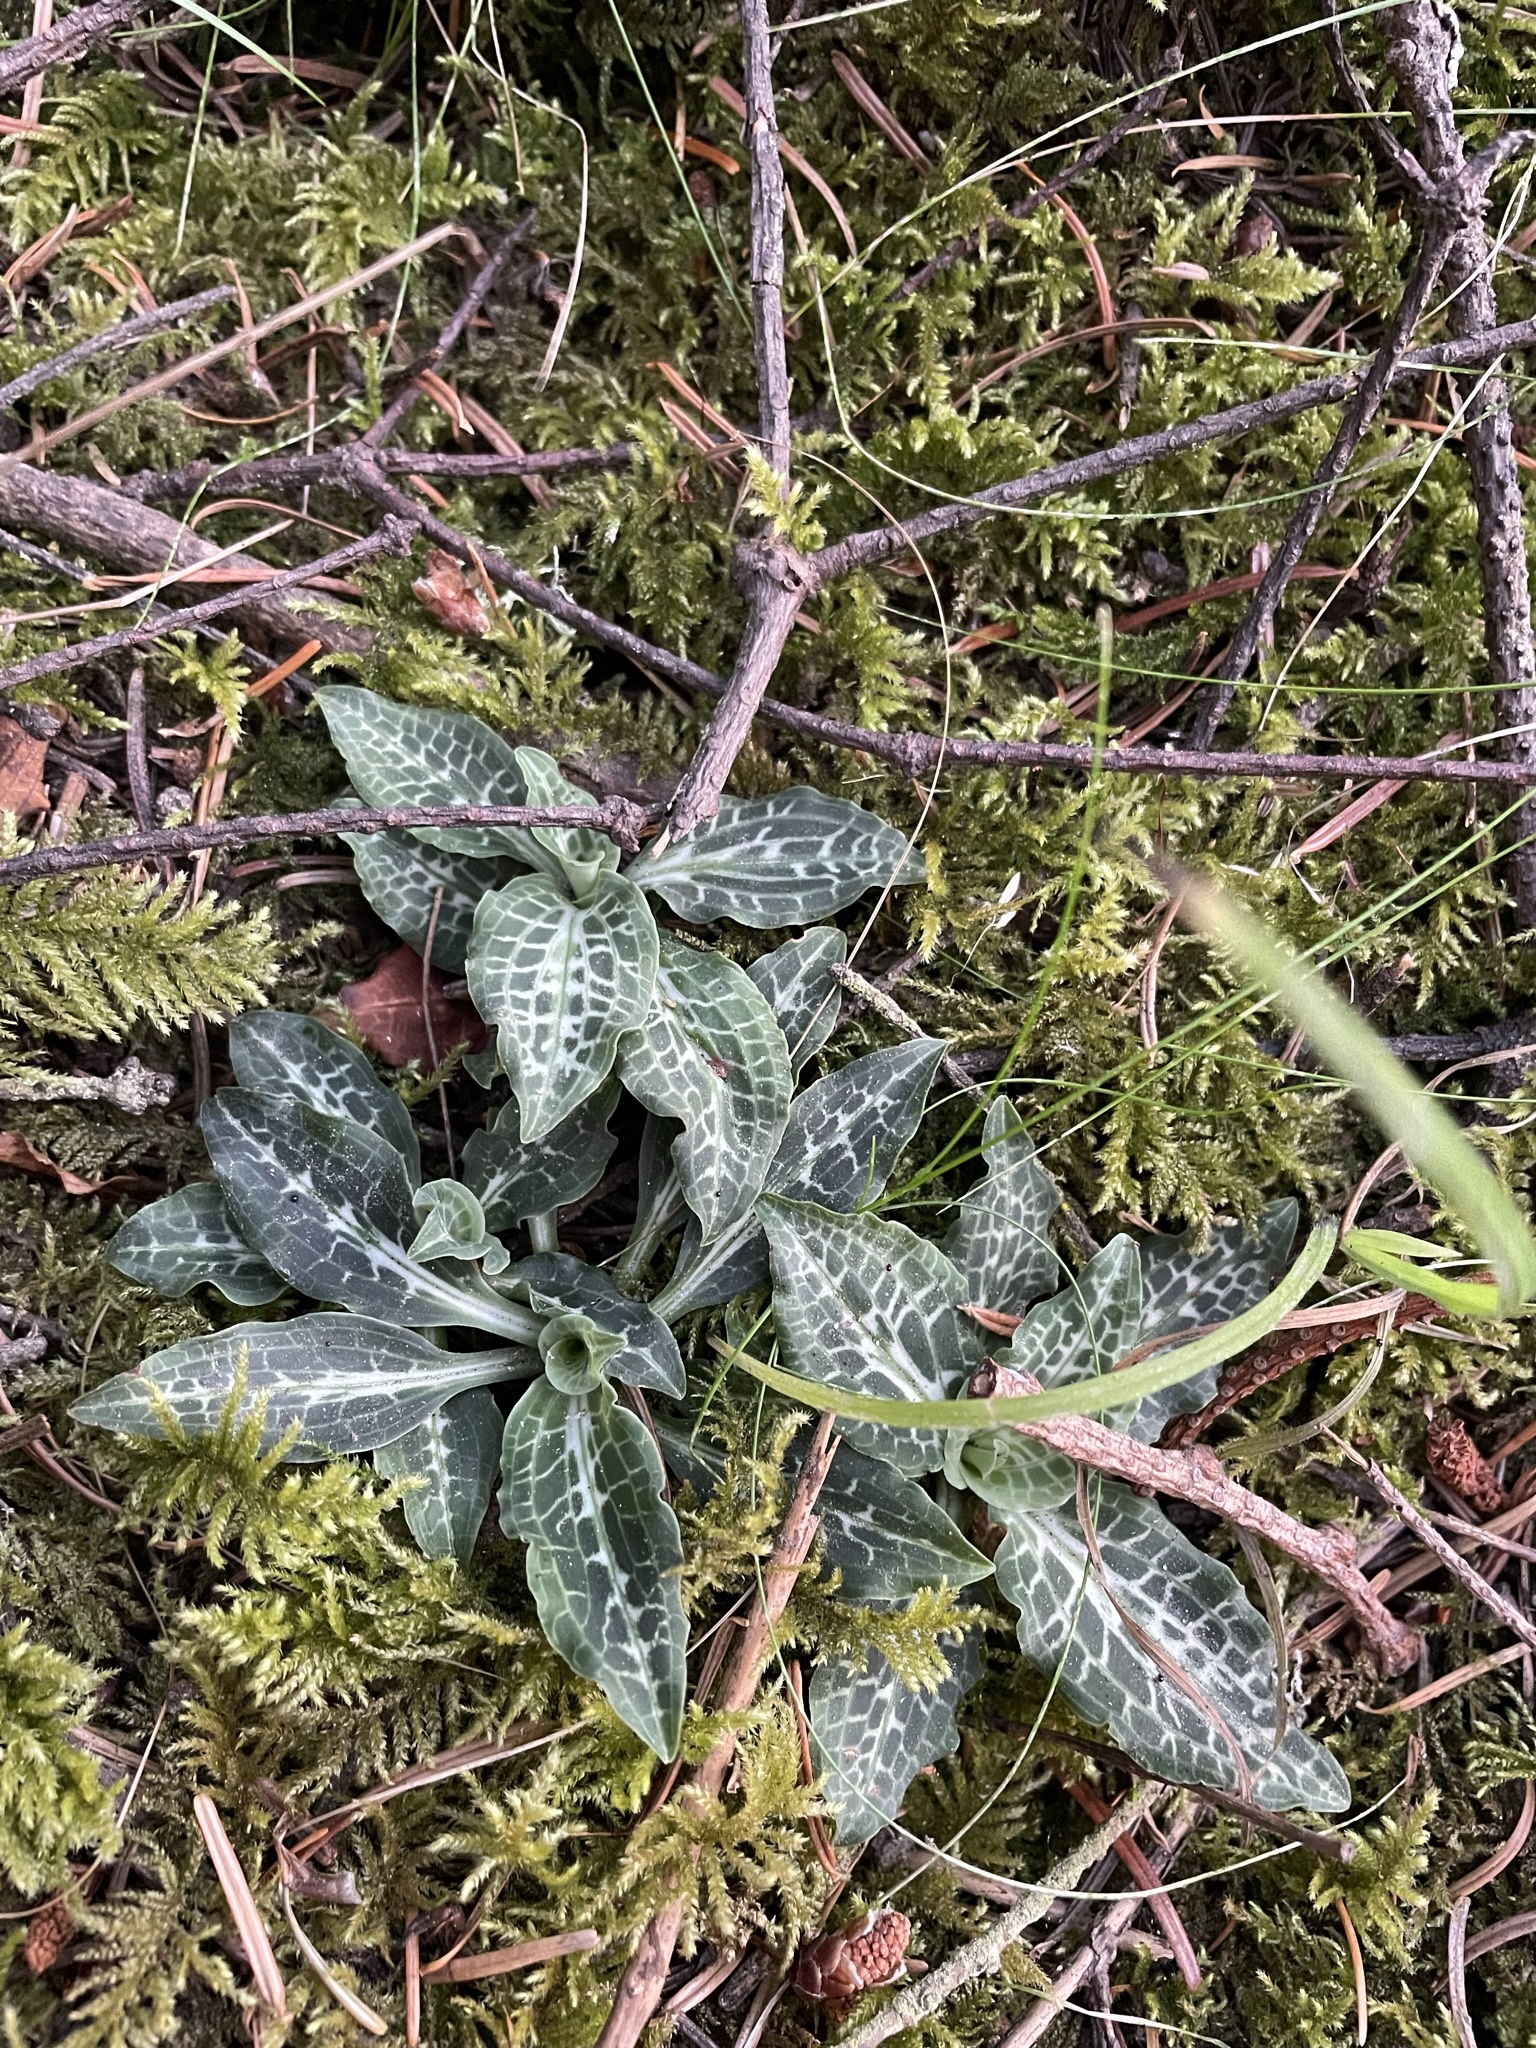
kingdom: Plantae
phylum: Tracheophyta
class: Liliopsida
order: Asparagales
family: Orchidaceae
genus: Goodyera
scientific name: Goodyera oblongifolia
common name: Giant rattlesnake-plantain
